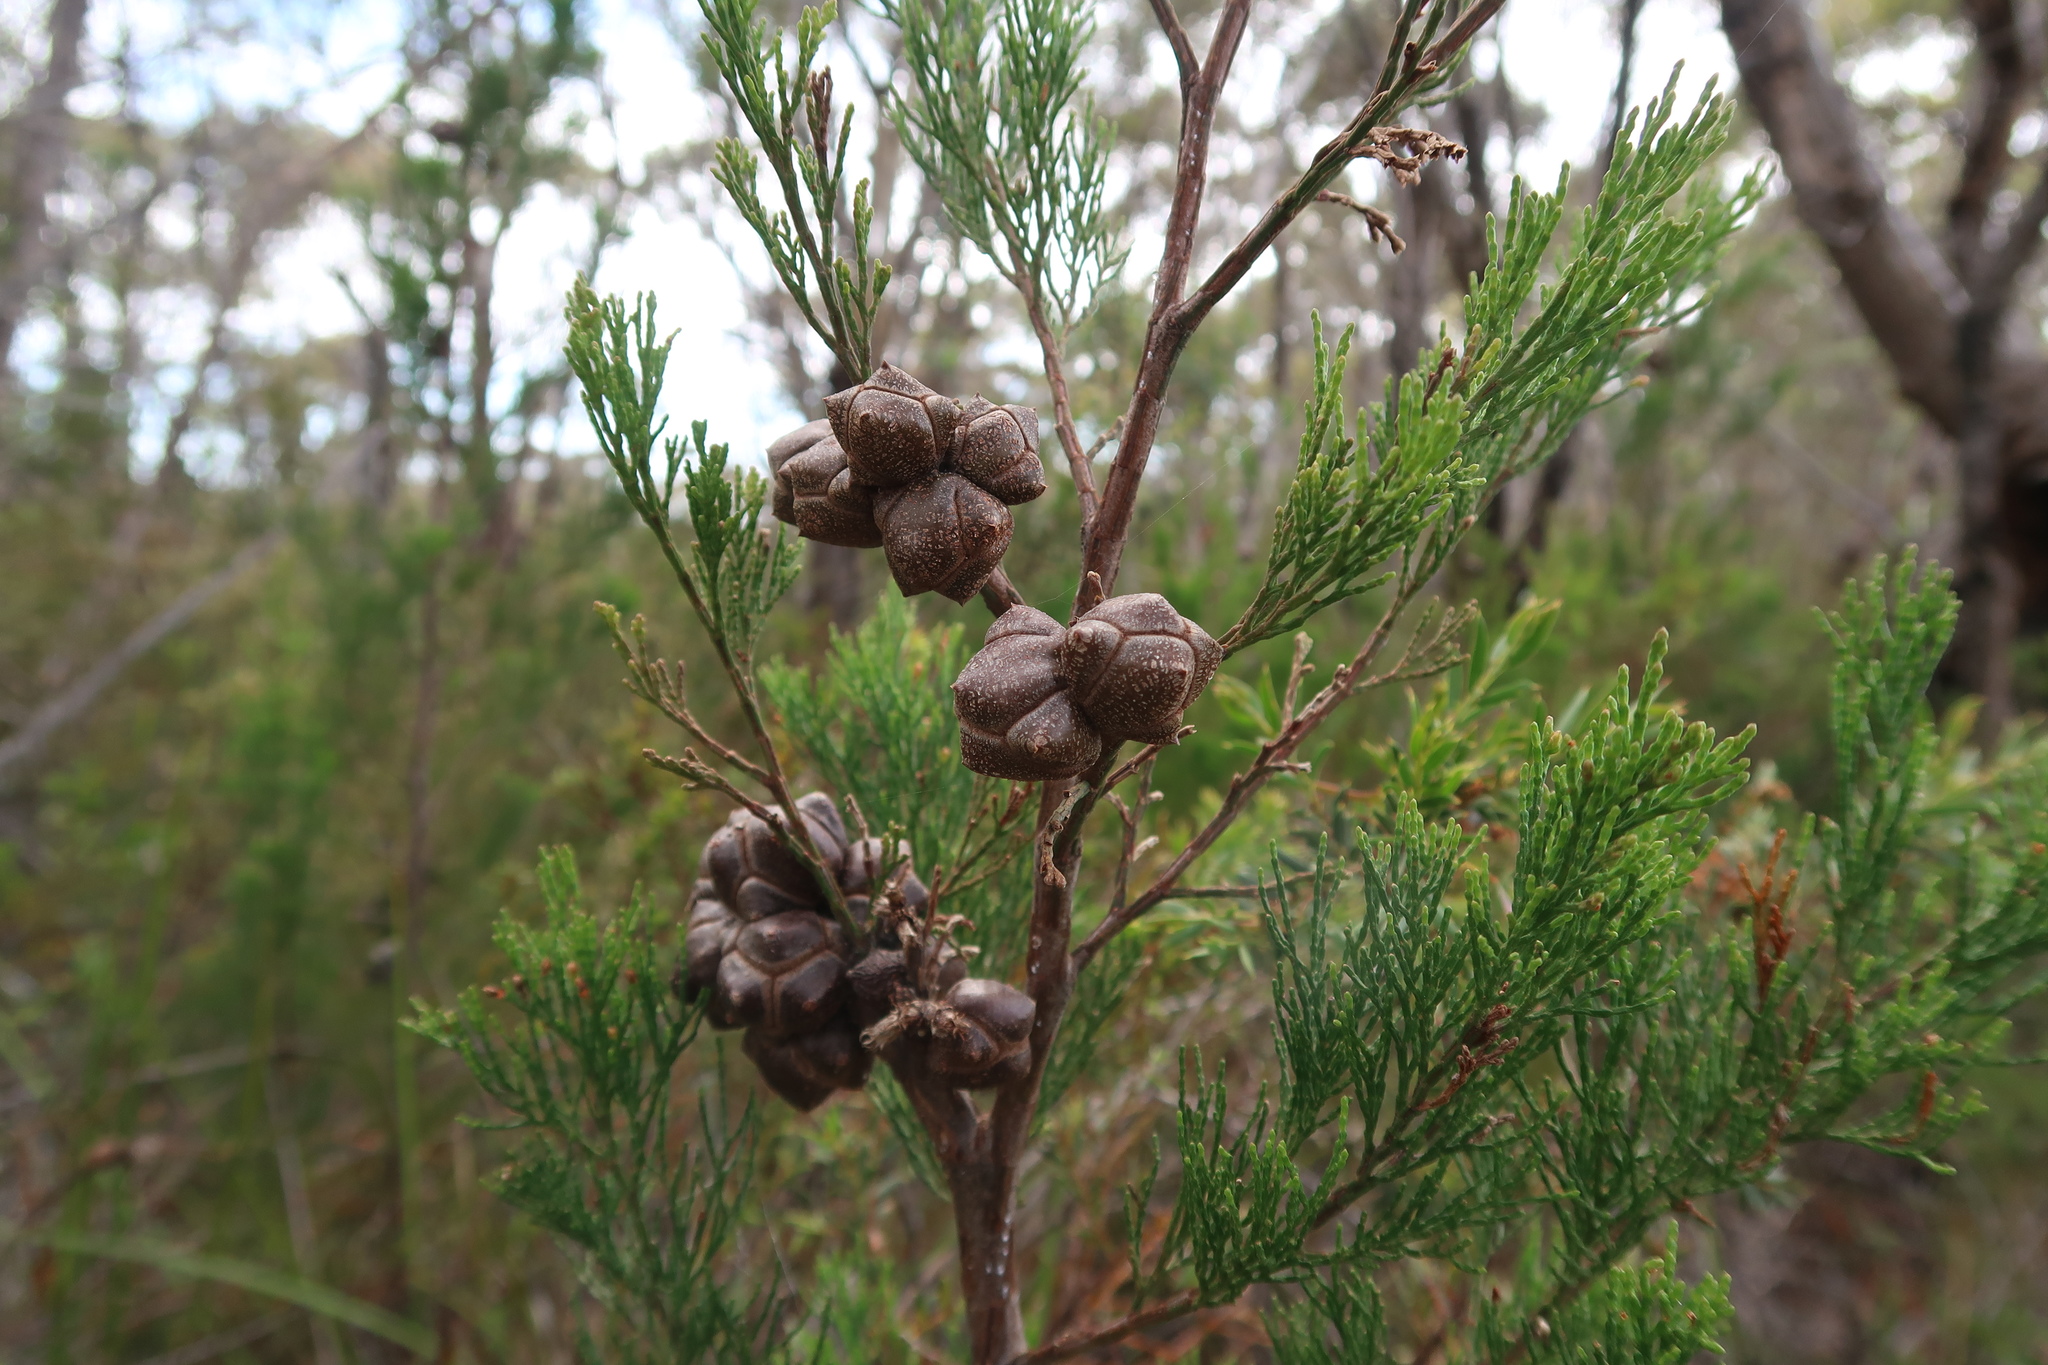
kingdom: Plantae
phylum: Tracheophyta
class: Pinopsida
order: Pinales
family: Cupressaceae
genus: Callitris
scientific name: Callitris rhomboidea
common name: Illawara mountain pine
